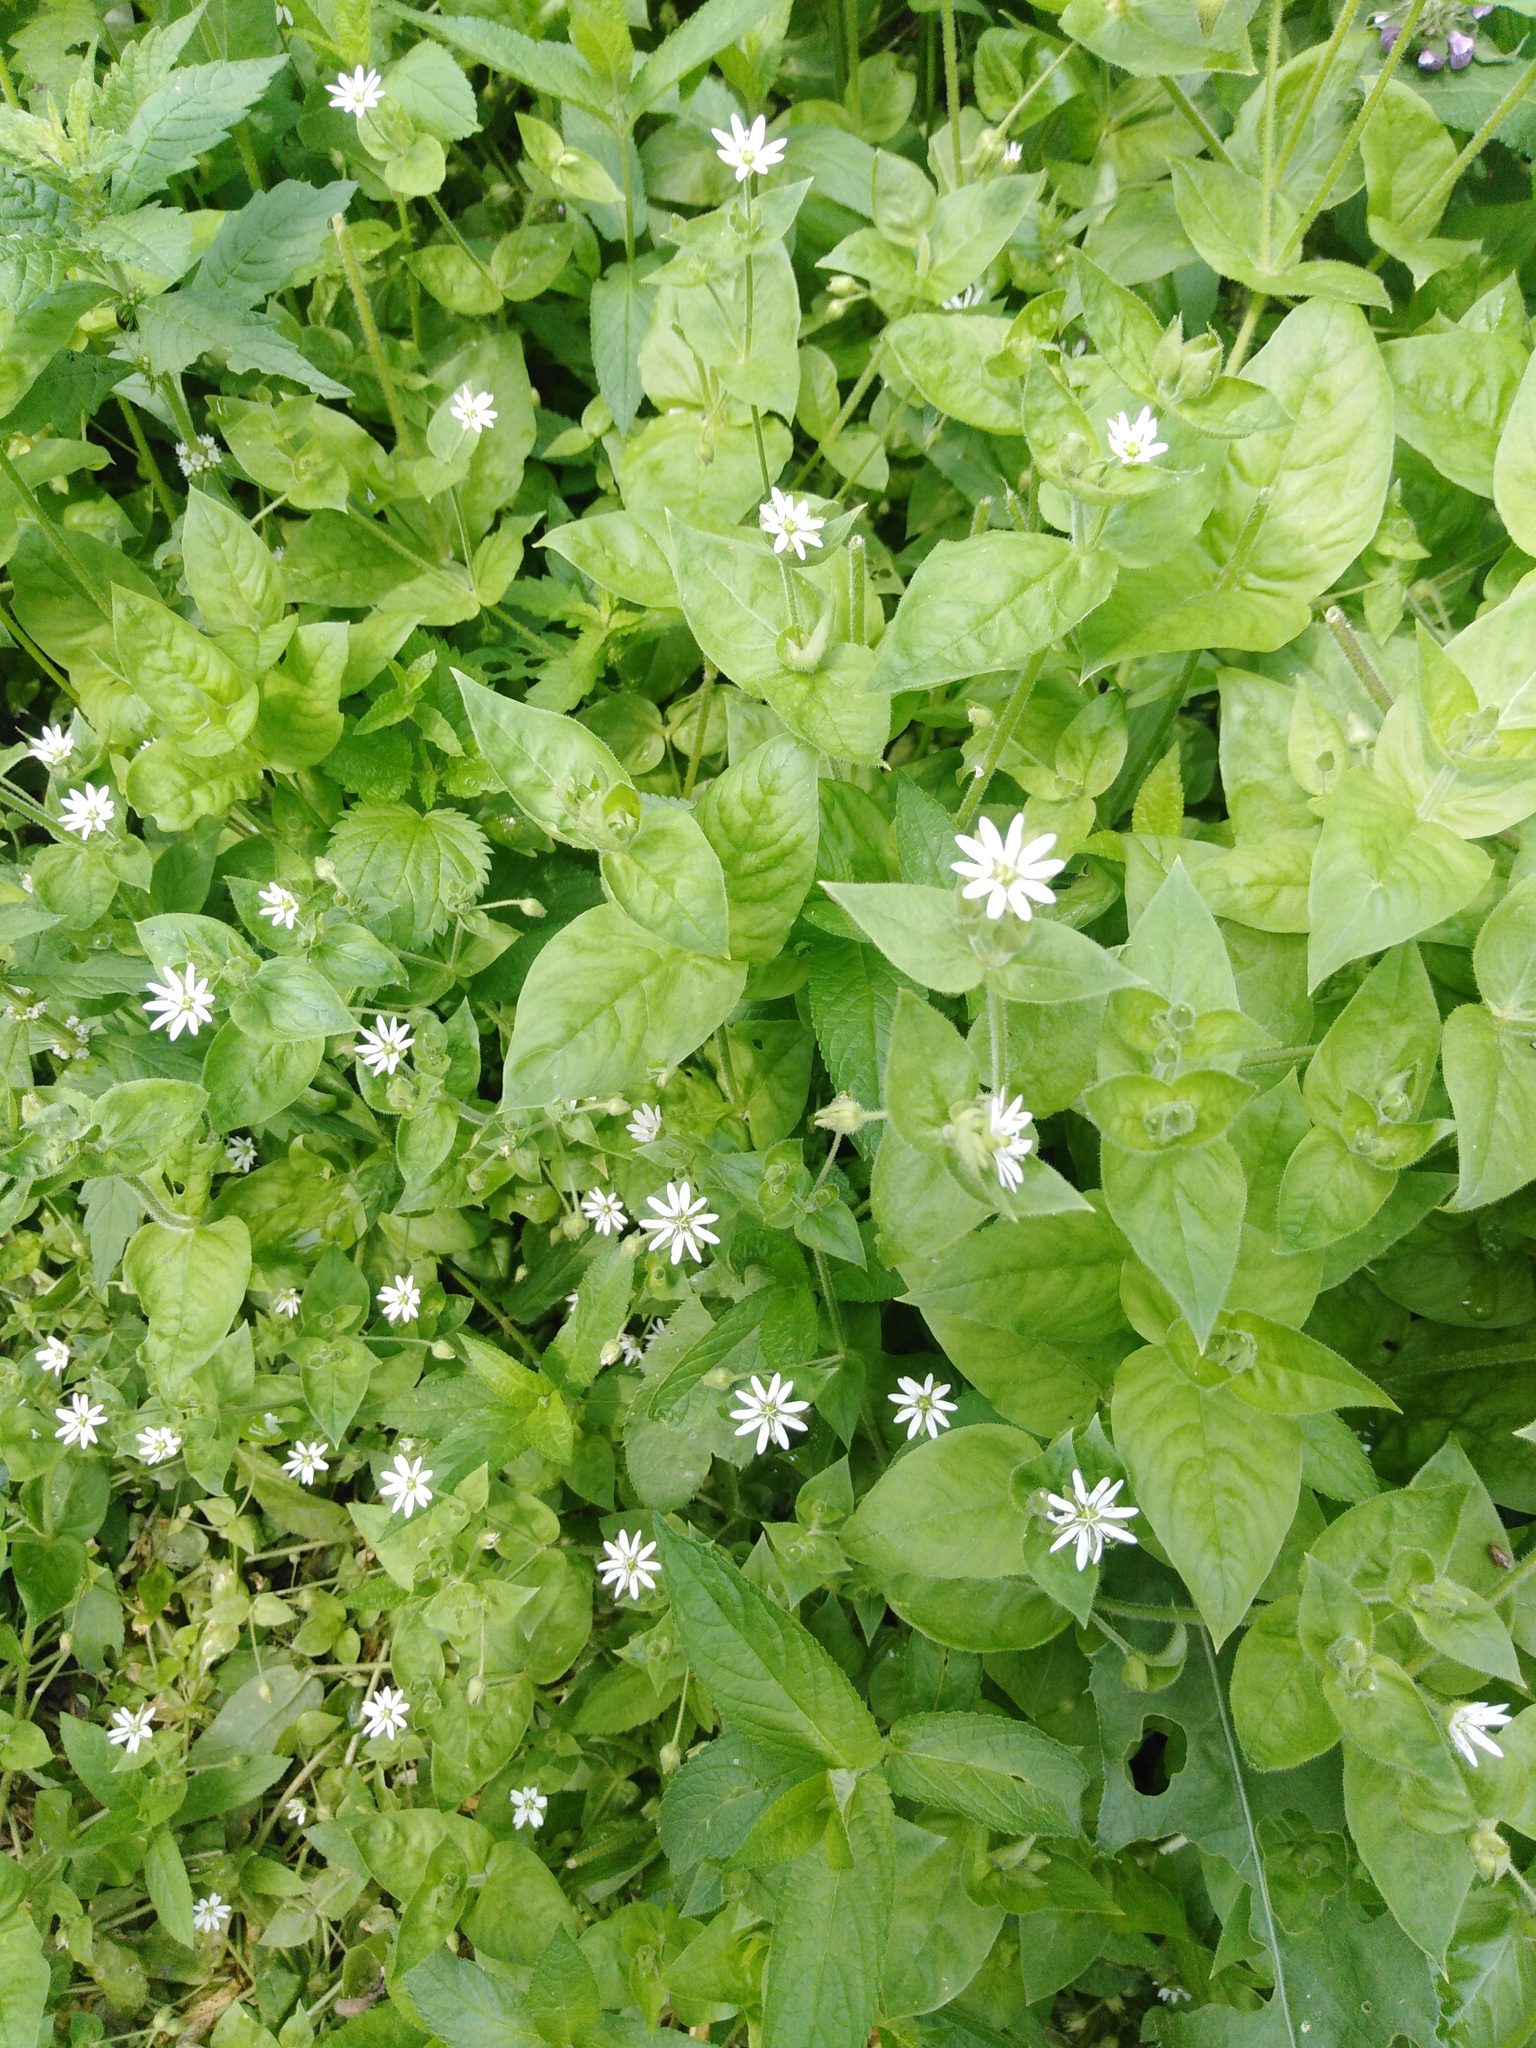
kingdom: Plantae
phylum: Tracheophyta
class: Magnoliopsida
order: Caryophyllales
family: Caryophyllaceae
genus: Stellaria
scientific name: Stellaria aquatica
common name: Water chickweed
